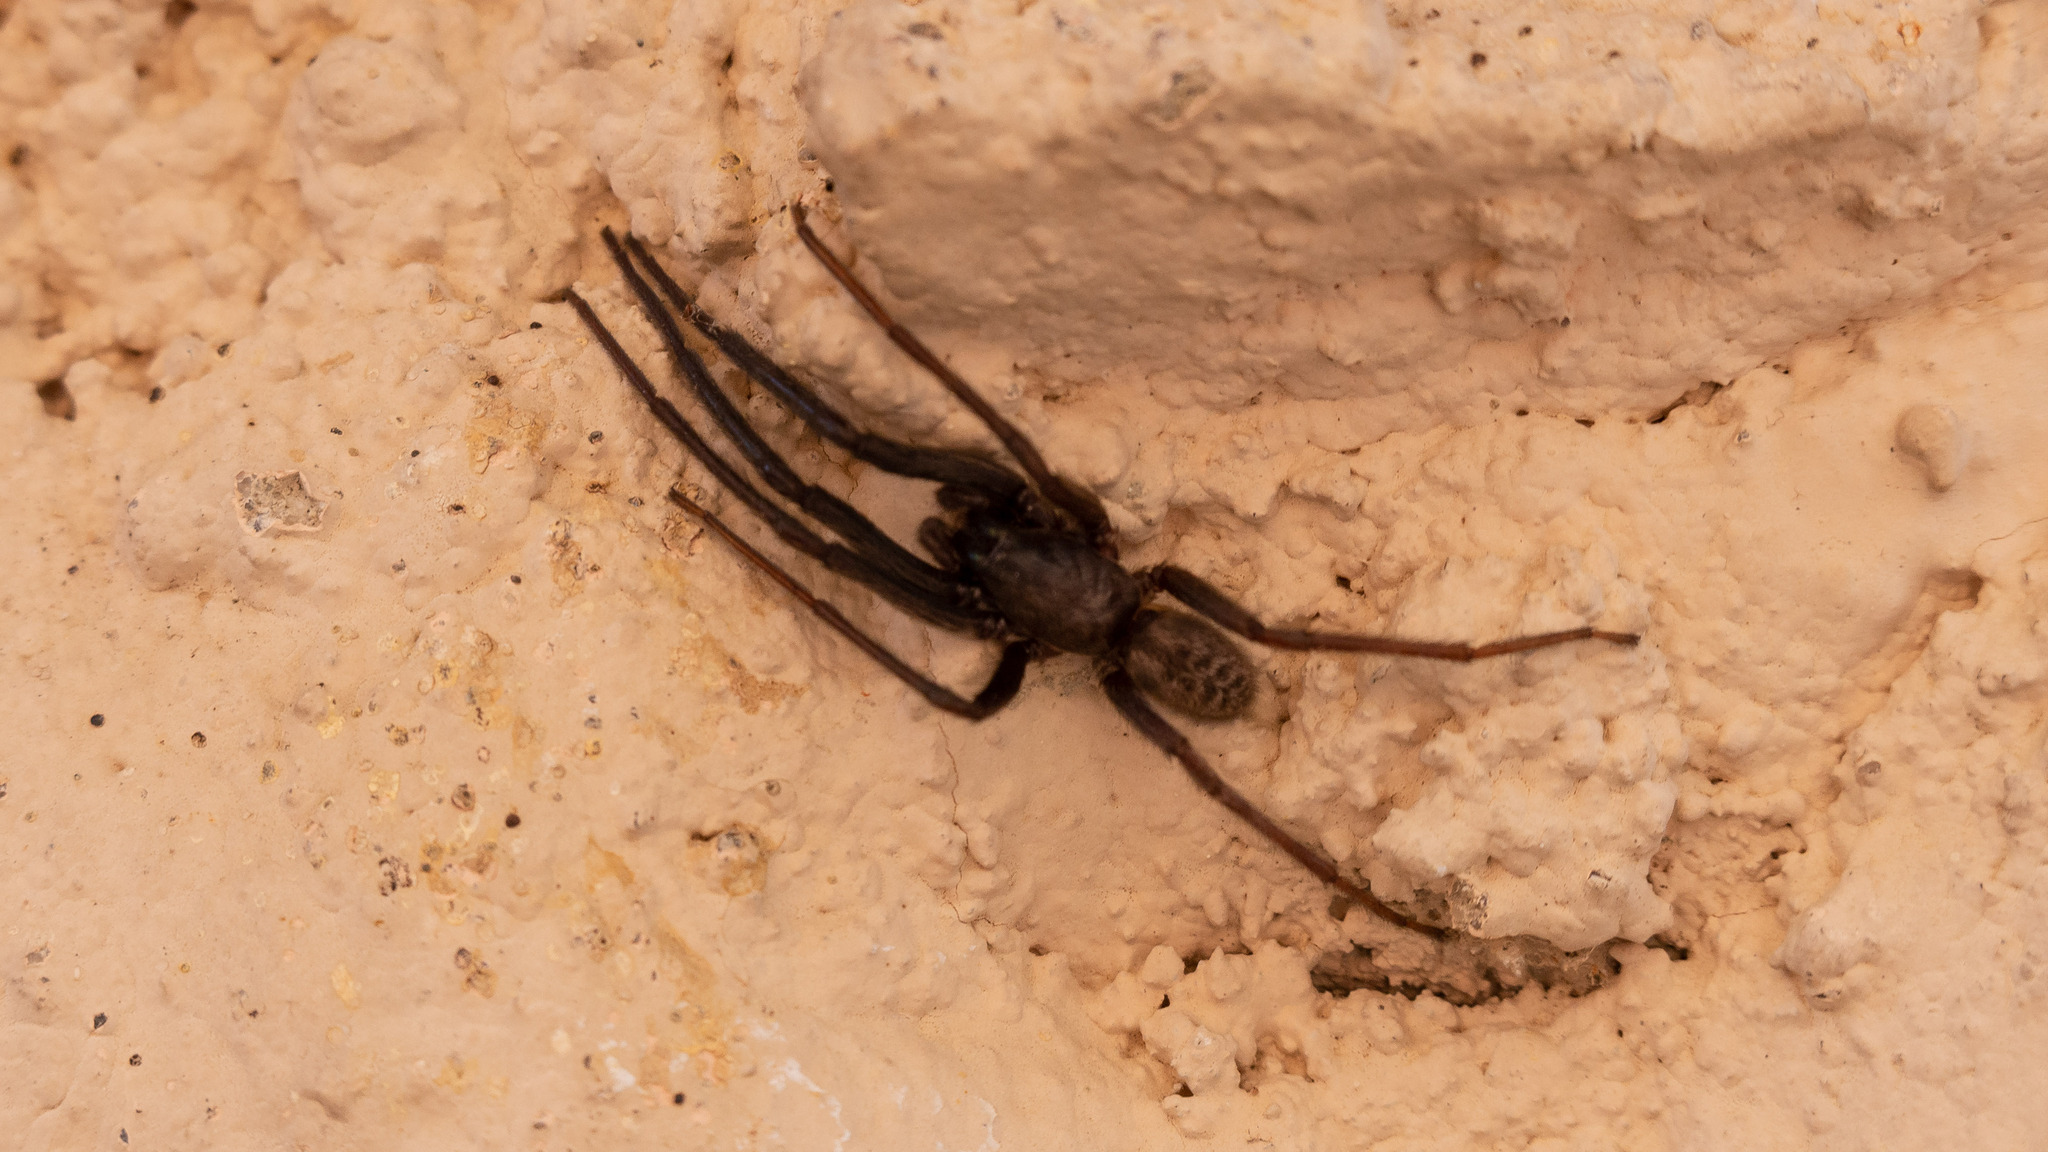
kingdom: Animalia
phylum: Arthropoda
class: Arachnida
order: Araneae
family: Segestriidae
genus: Segestria
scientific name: Segestria florentina
